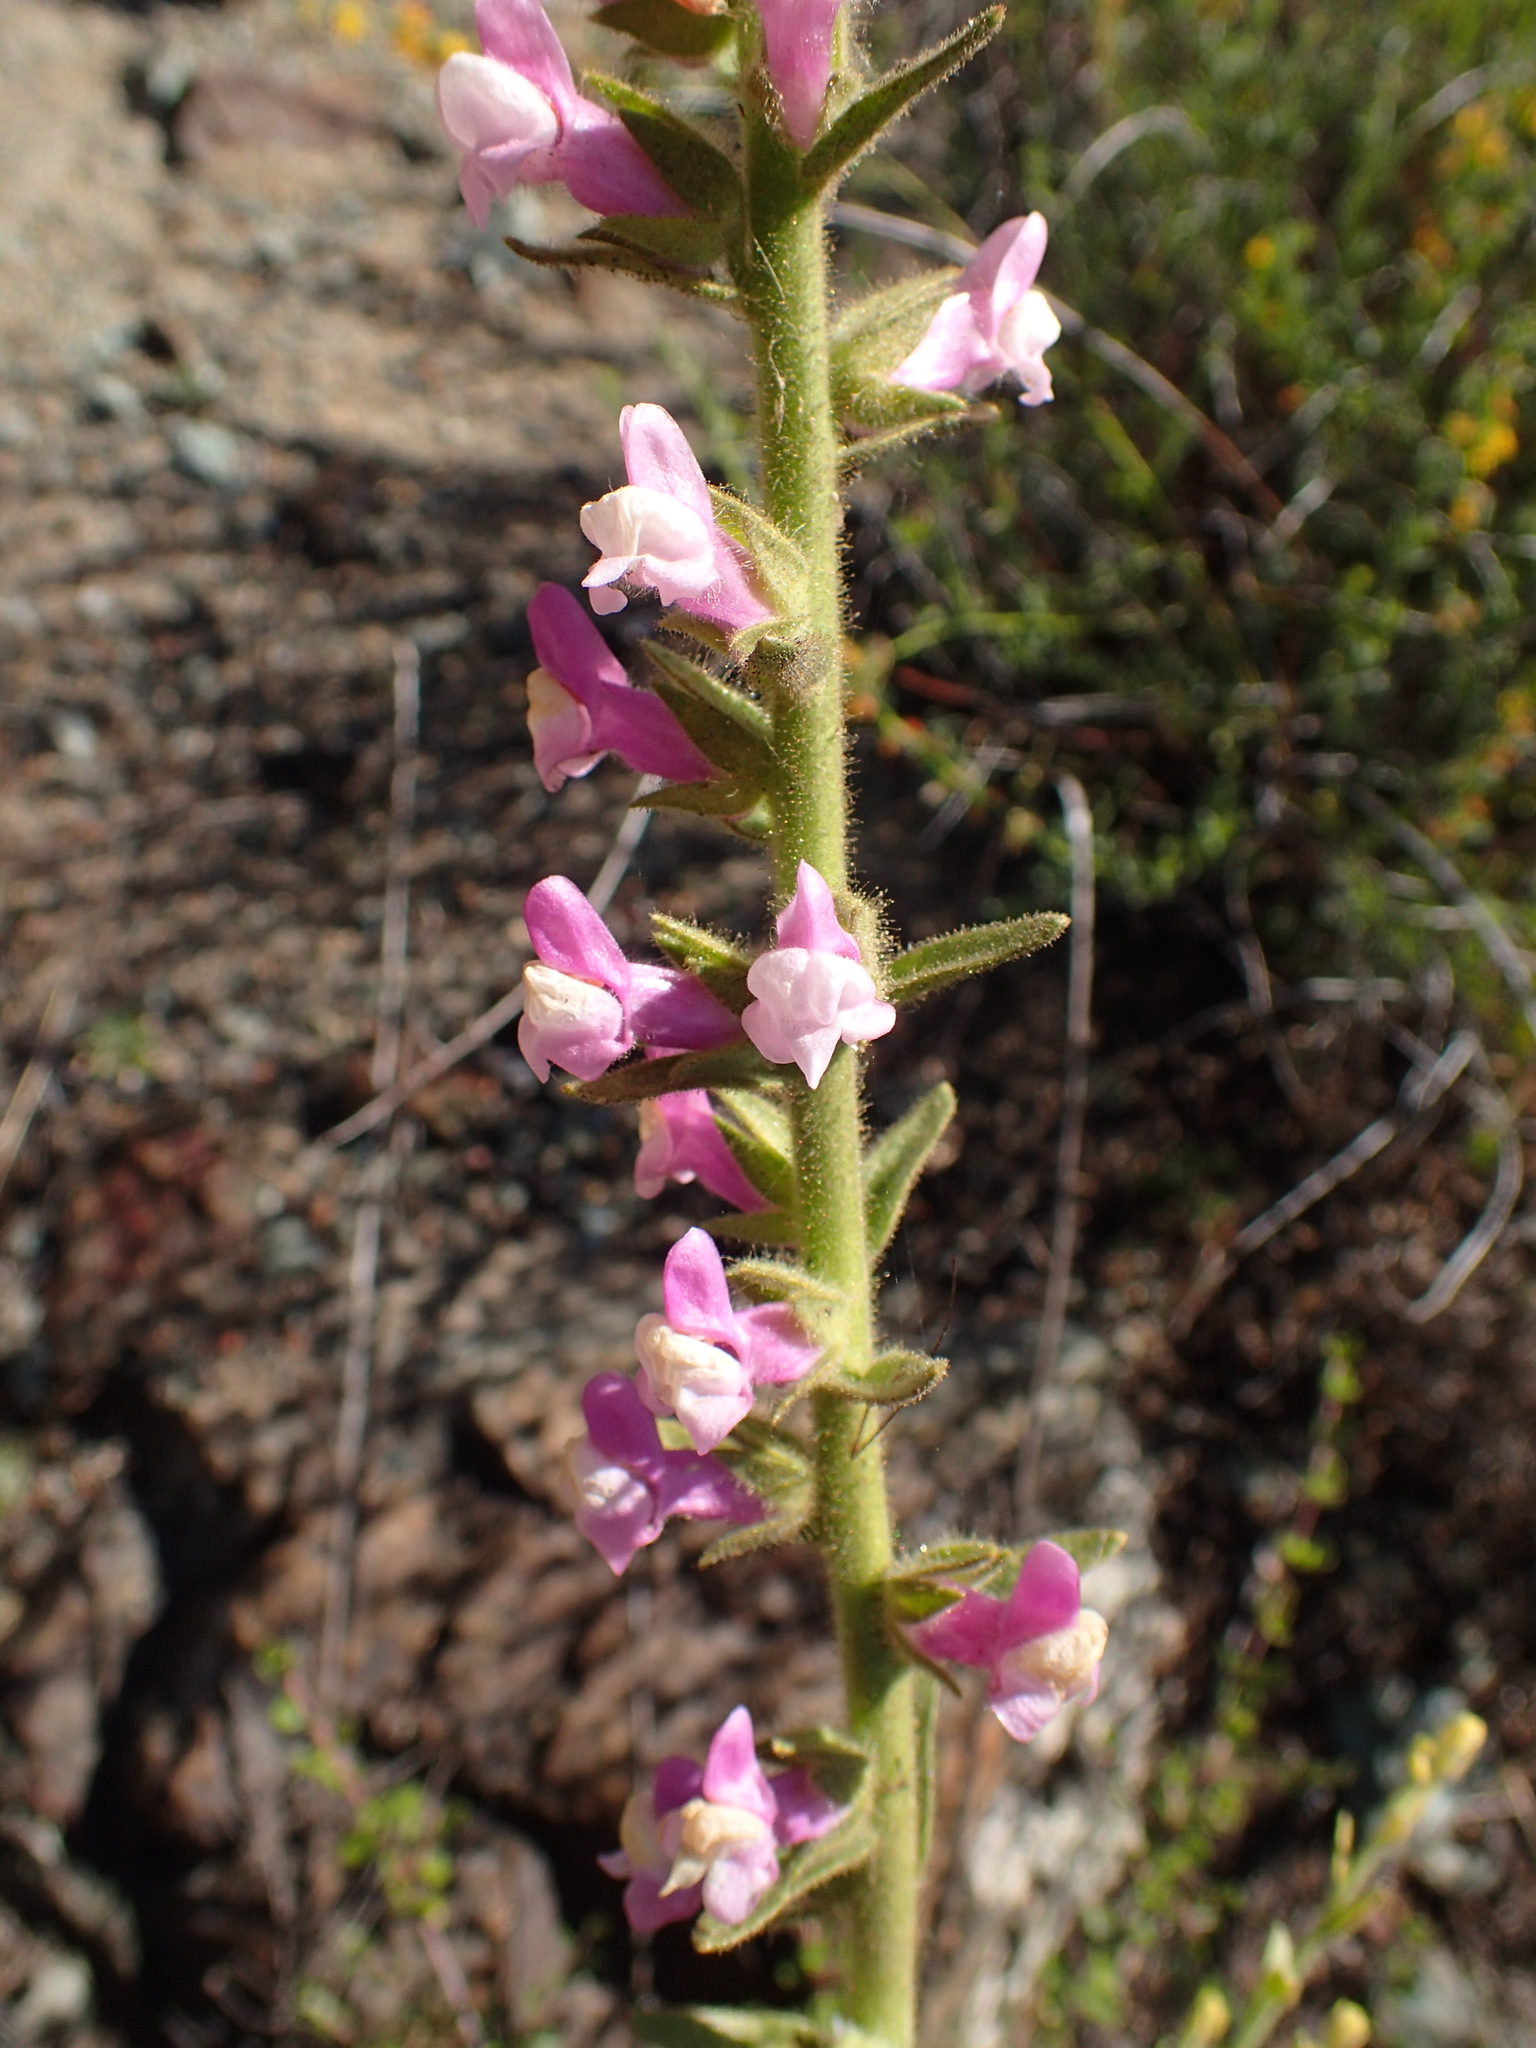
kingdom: Plantae
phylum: Tracheophyta
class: Magnoliopsida
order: Lamiales
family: Plantaginaceae
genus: Sairocarpus
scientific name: Sairocarpus multiflorus
